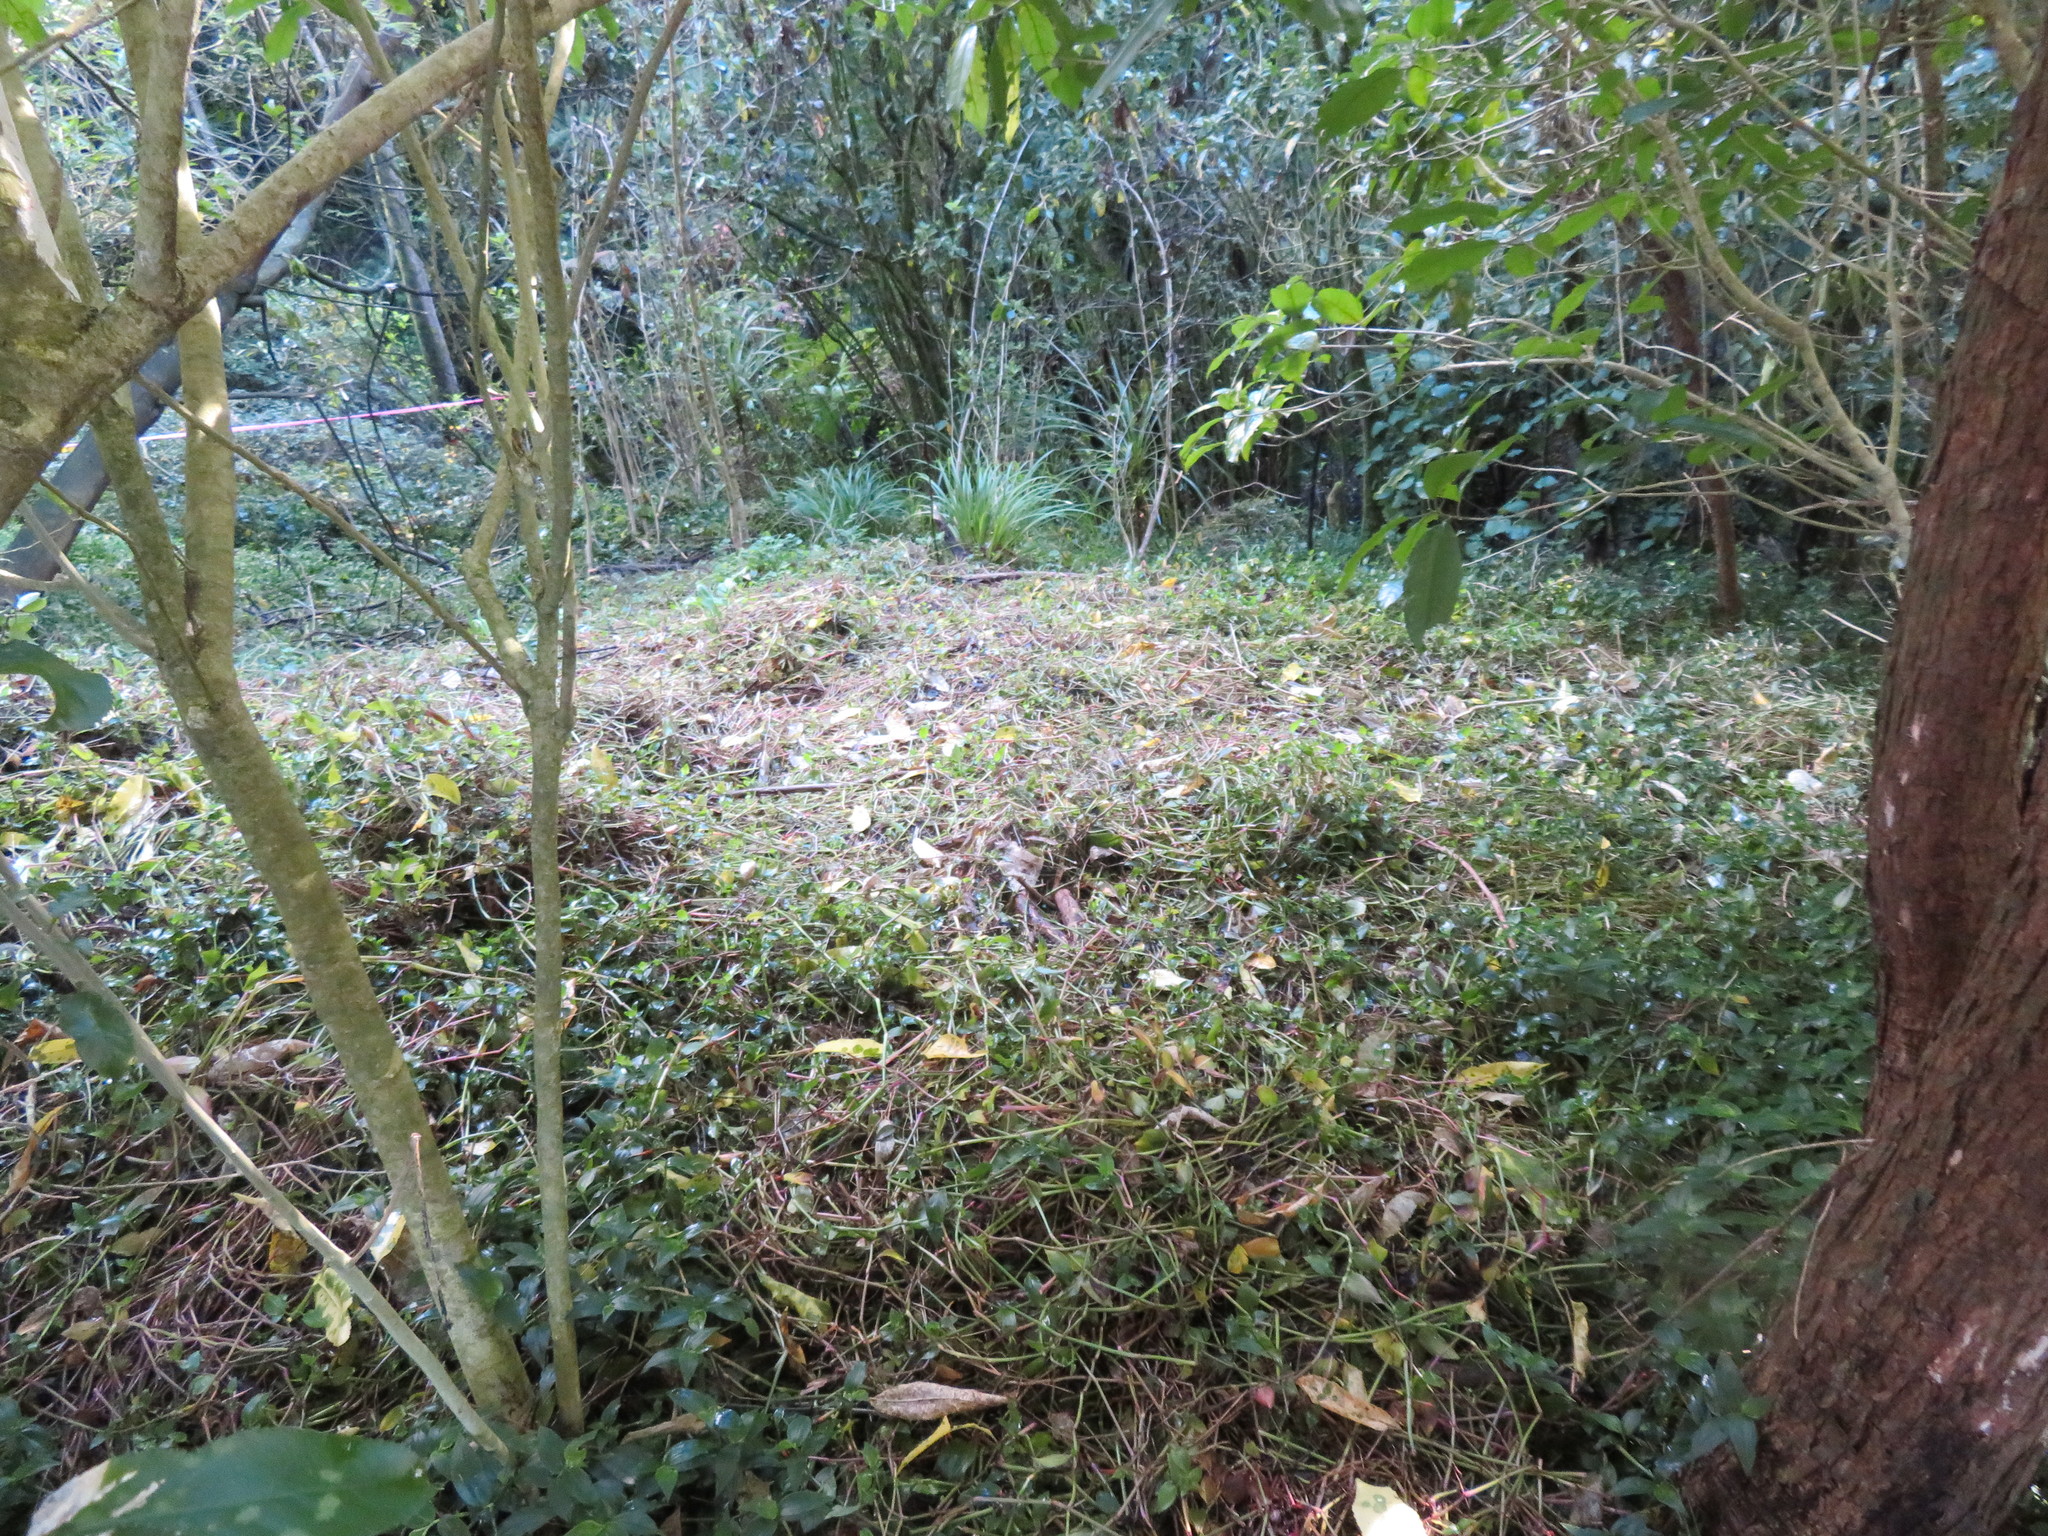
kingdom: Plantae
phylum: Tracheophyta
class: Liliopsida
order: Commelinales
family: Commelinaceae
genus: Tradescantia
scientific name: Tradescantia fluminensis
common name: Wandering-jew
